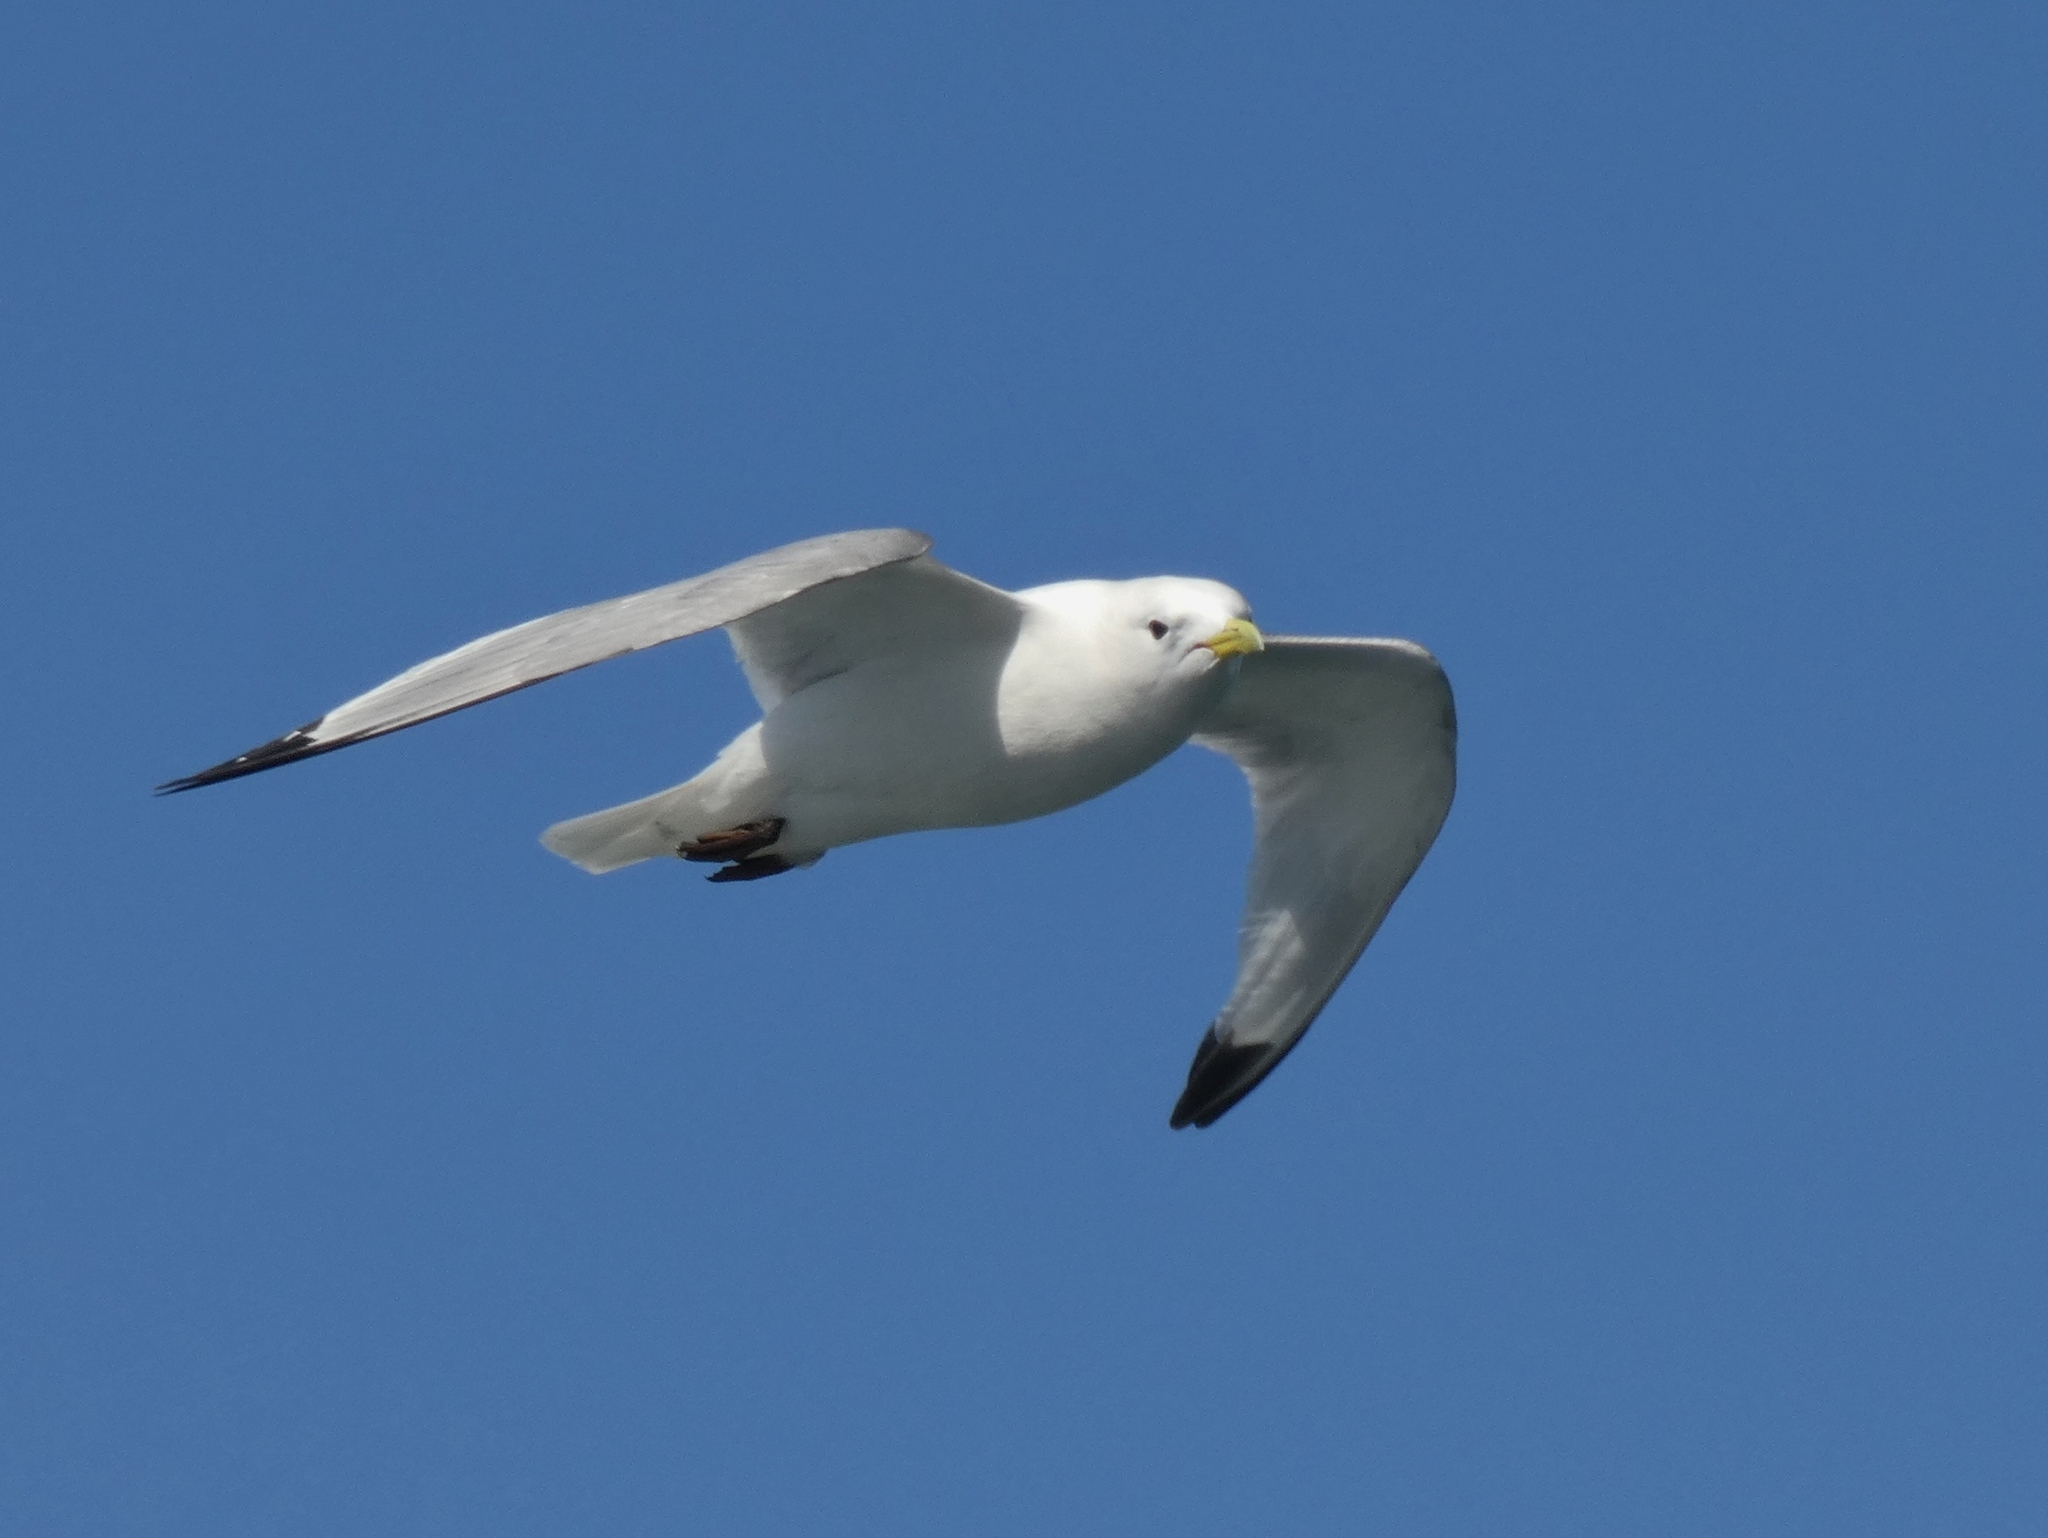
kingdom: Animalia
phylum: Chordata
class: Aves
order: Charadriiformes
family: Laridae
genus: Rissa
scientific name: Rissa tridactyla
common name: Black-legged kittiwake
